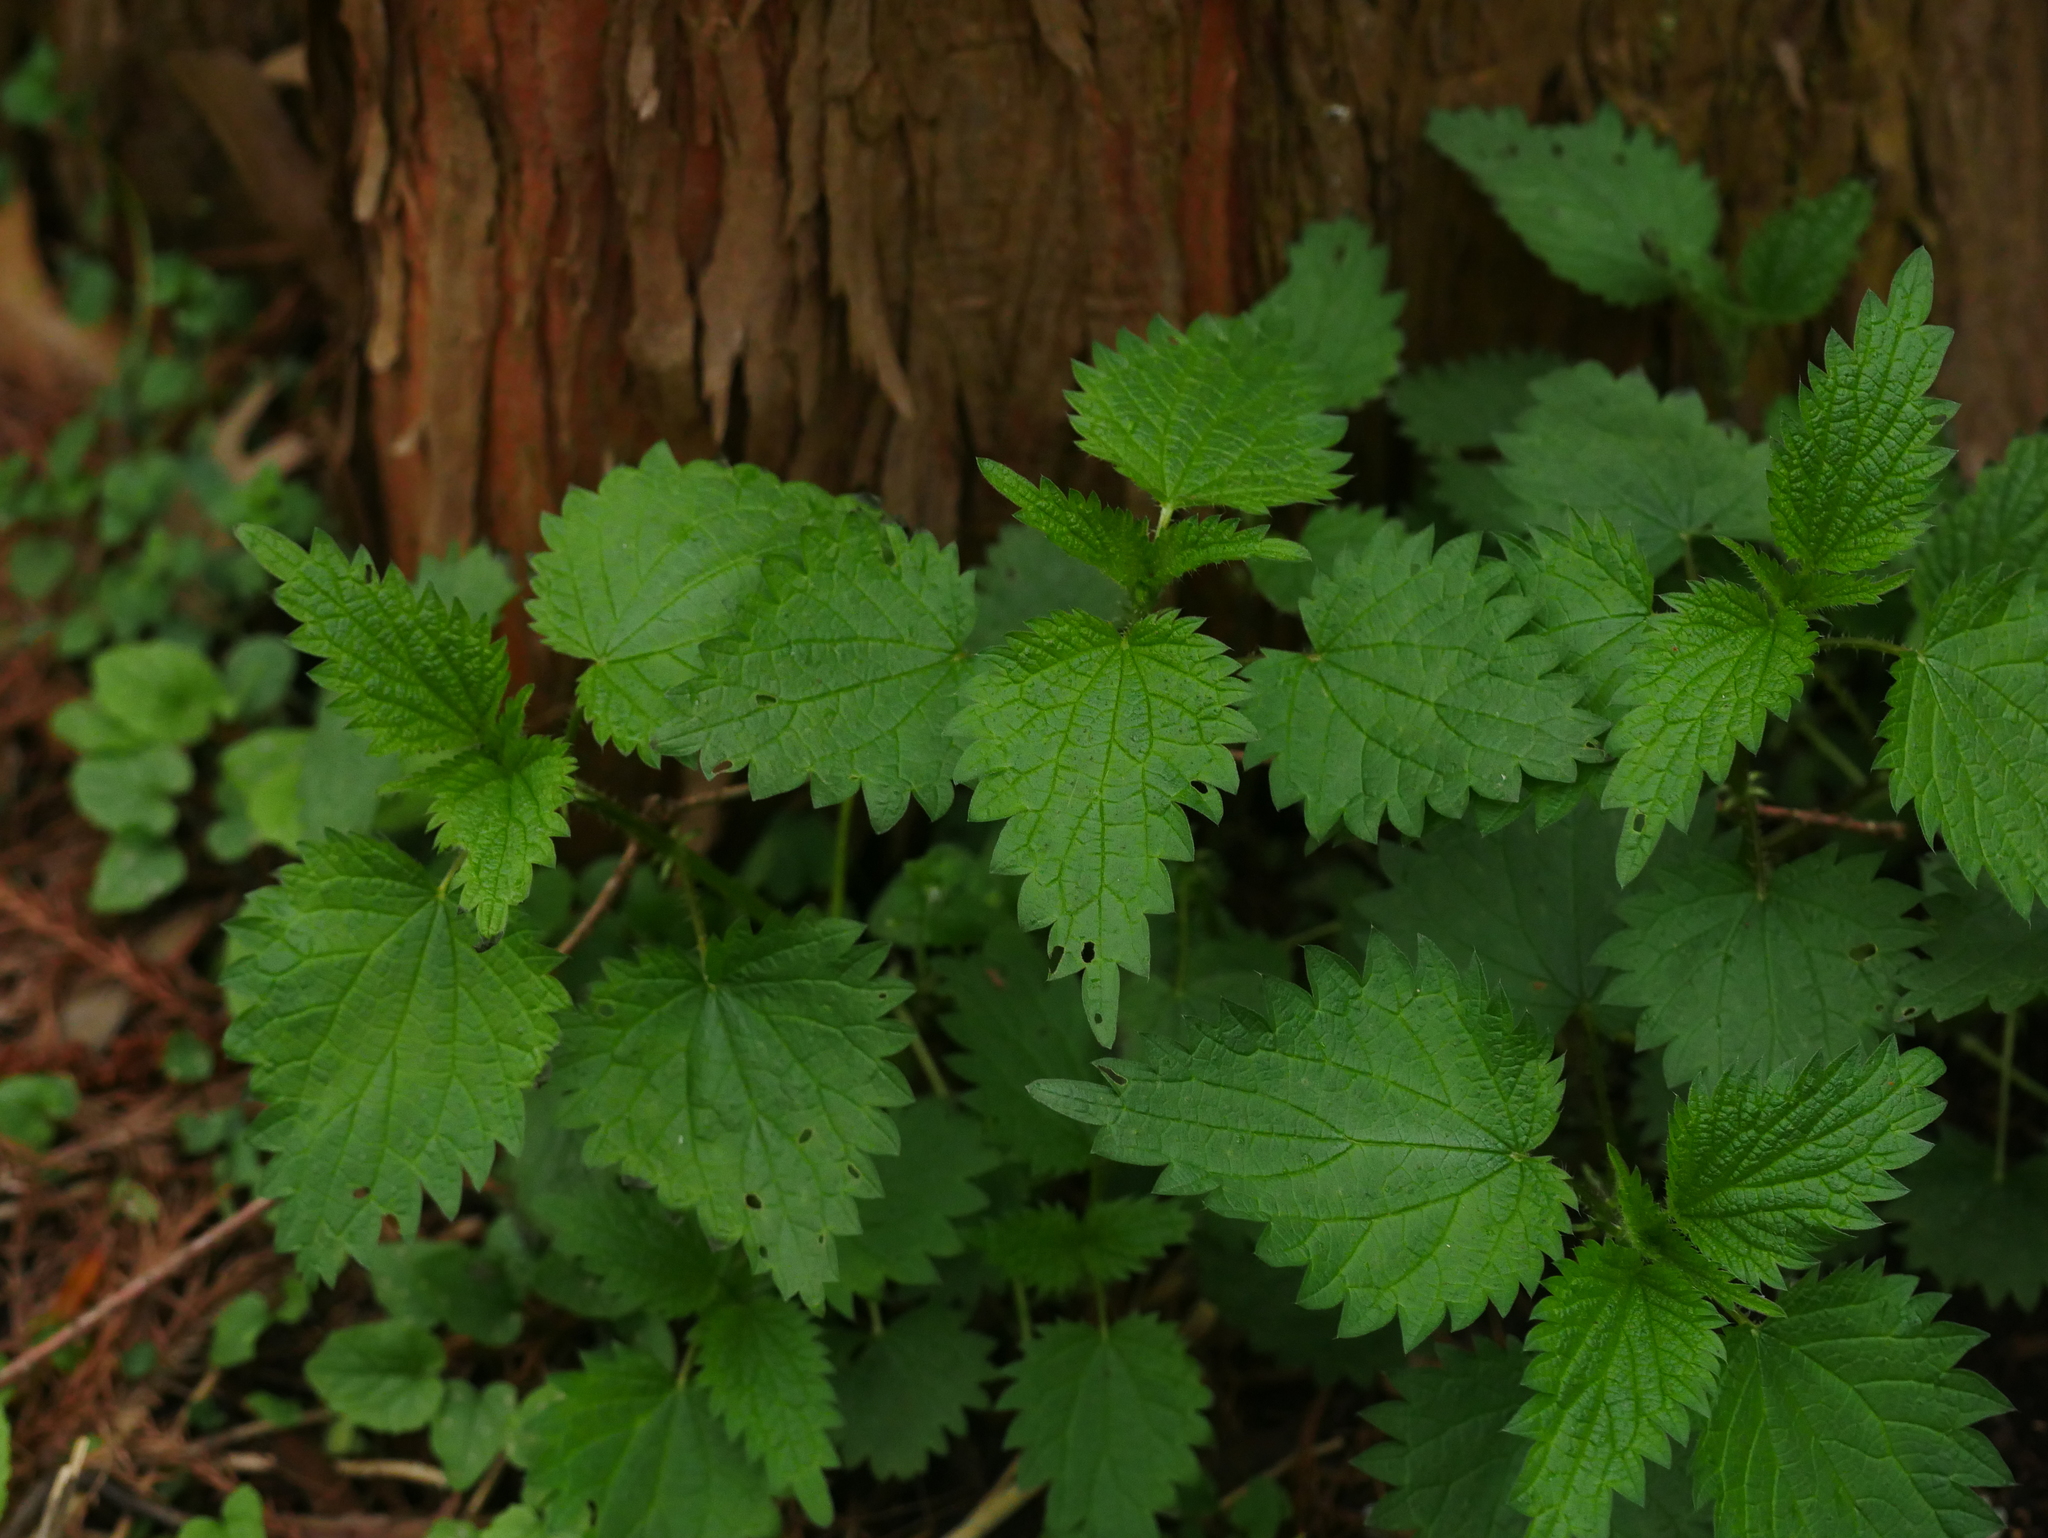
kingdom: Plantae
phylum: Tracheophyta
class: Magnoliopsida
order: Rosales
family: Urticaceae
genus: Urtica
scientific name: Urtica dioica
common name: Common nettle
